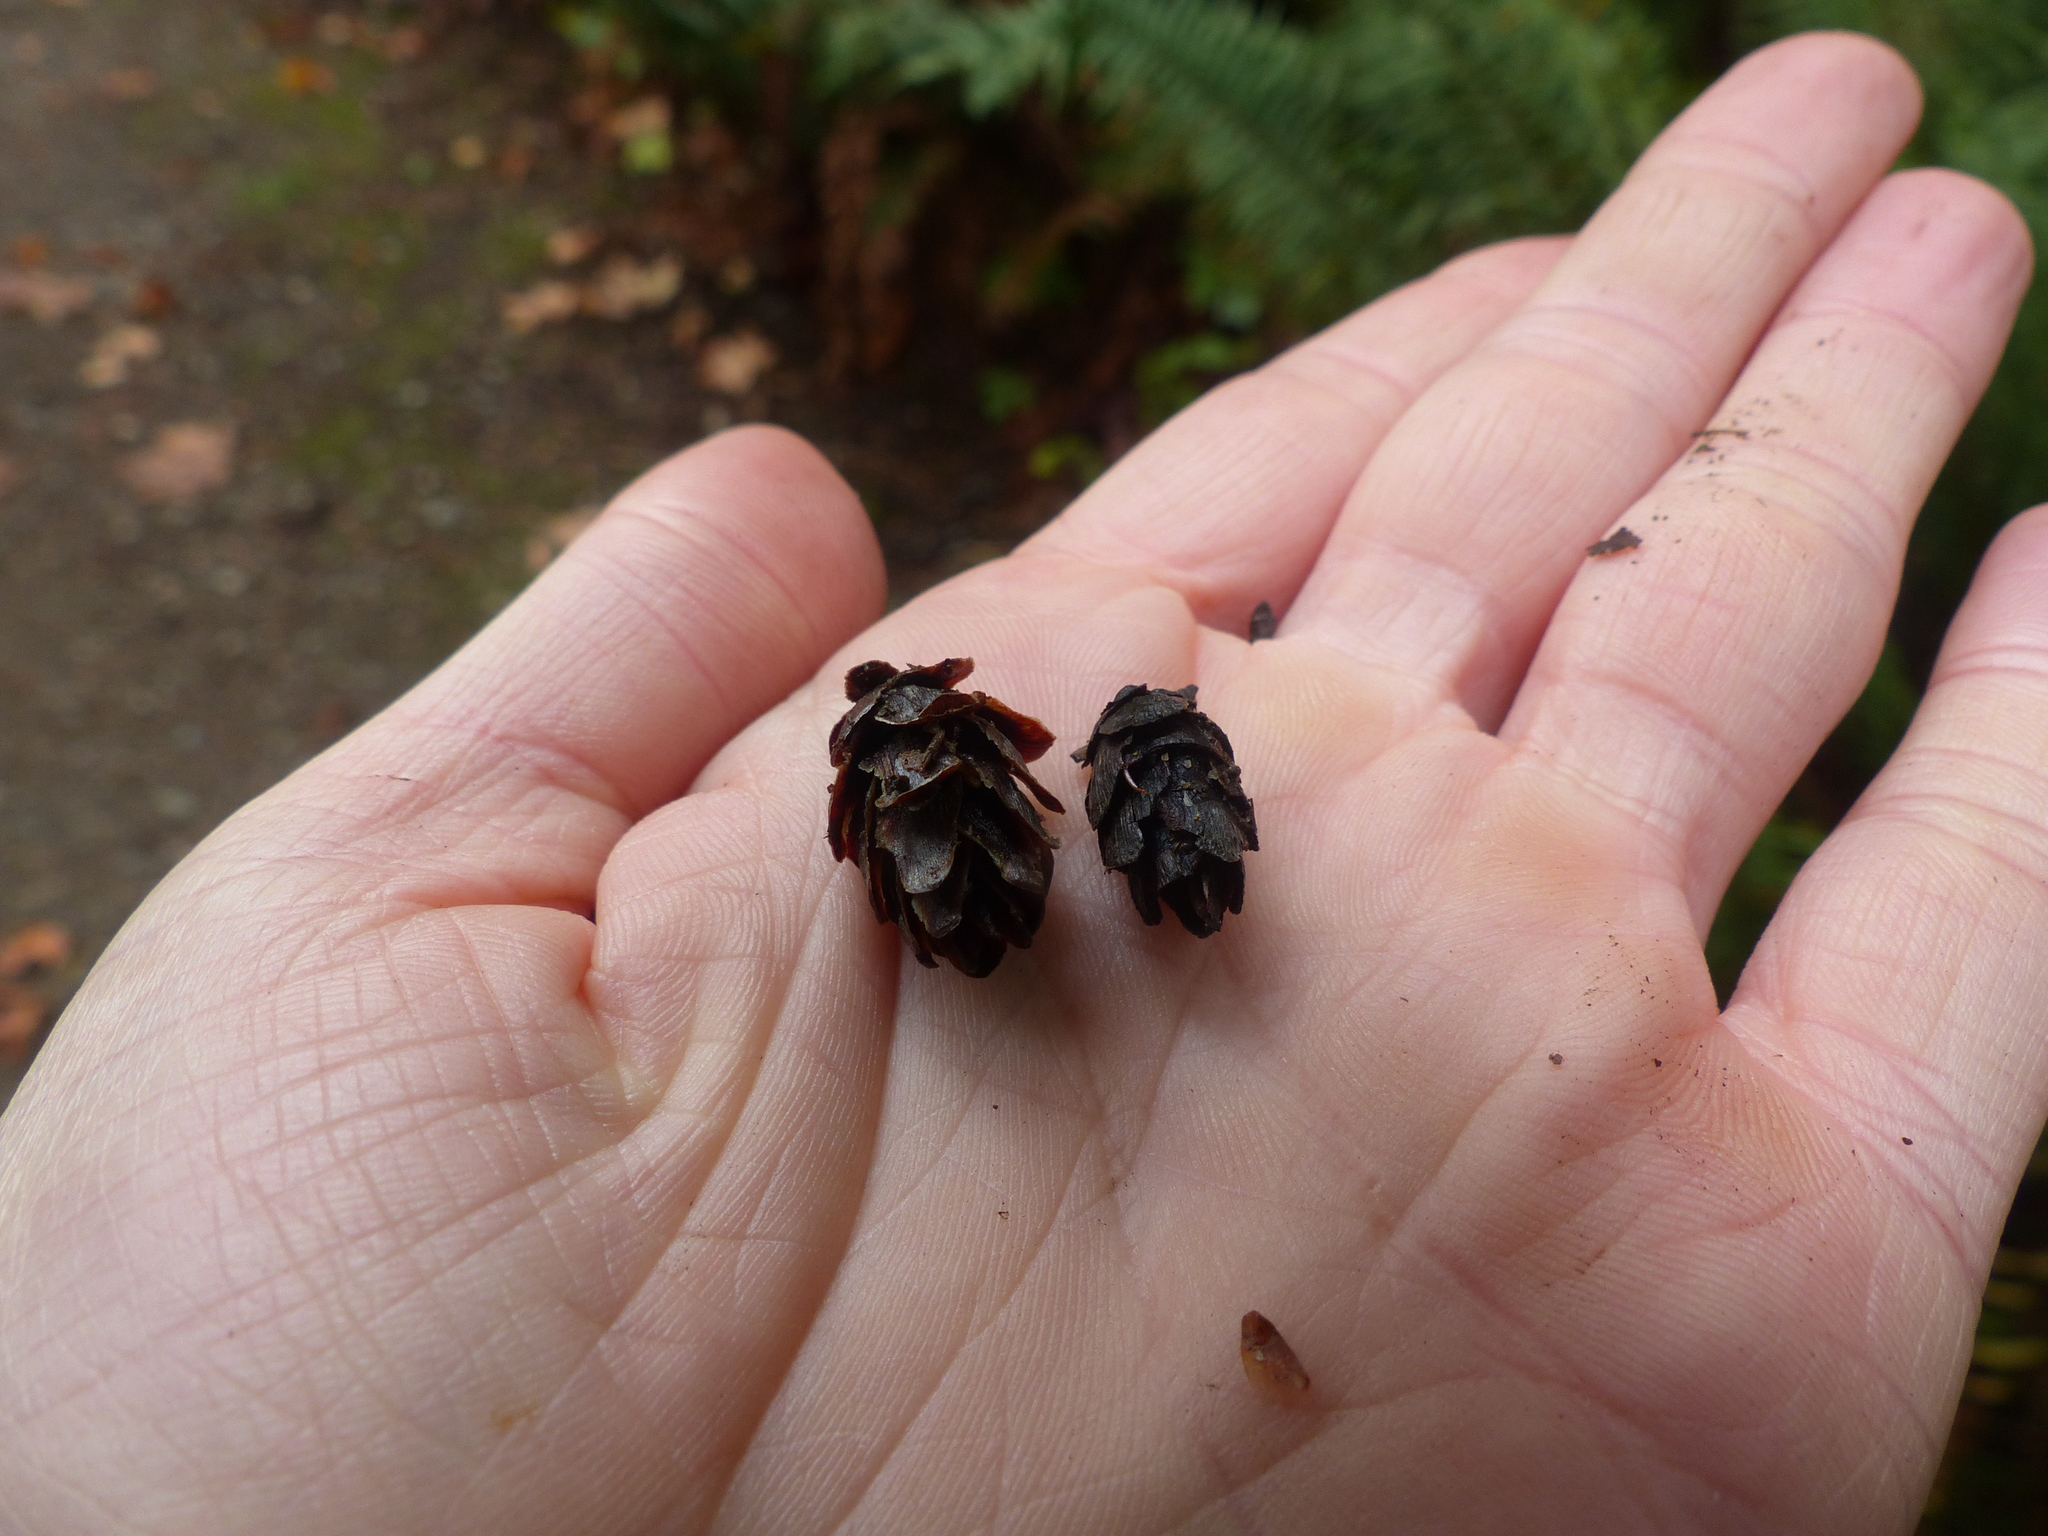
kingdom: Plantae
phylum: Tracheophyta
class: Pinopsida
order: Pinales
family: Pinaceae
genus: Tsuga
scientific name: Tsuga heterophylla
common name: Western hemlock
